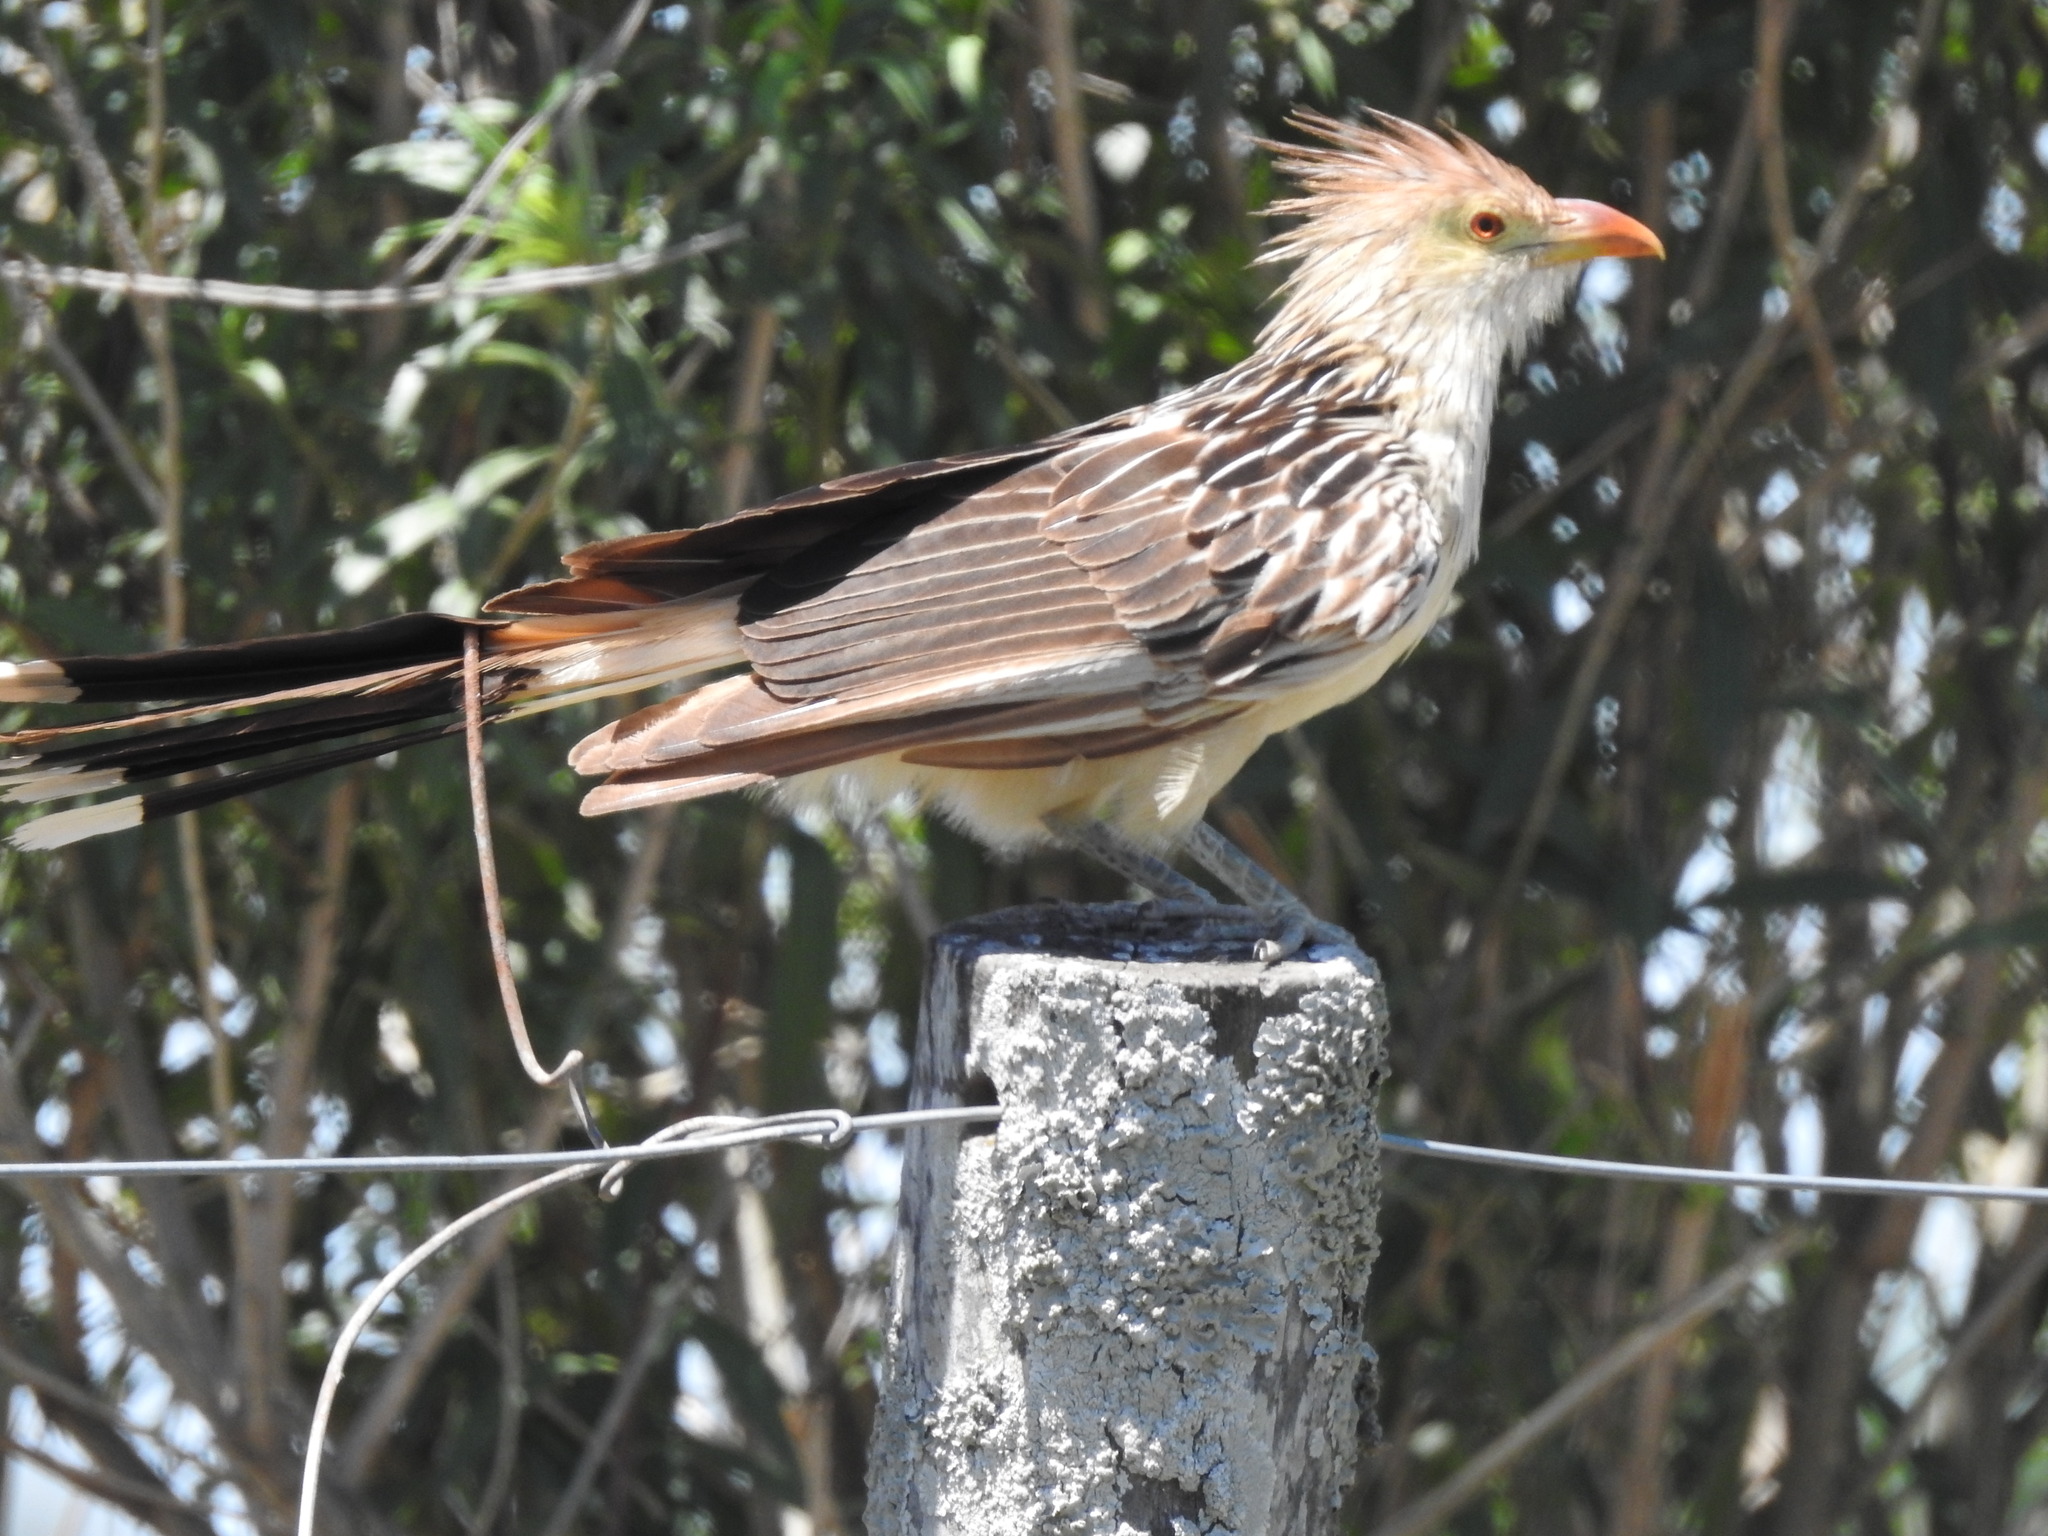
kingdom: Animalia
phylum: Chordata
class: Aves
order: Cuculiformes
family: Cuculidae
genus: Guira
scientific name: Guira guira
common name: Guira cuckoo
